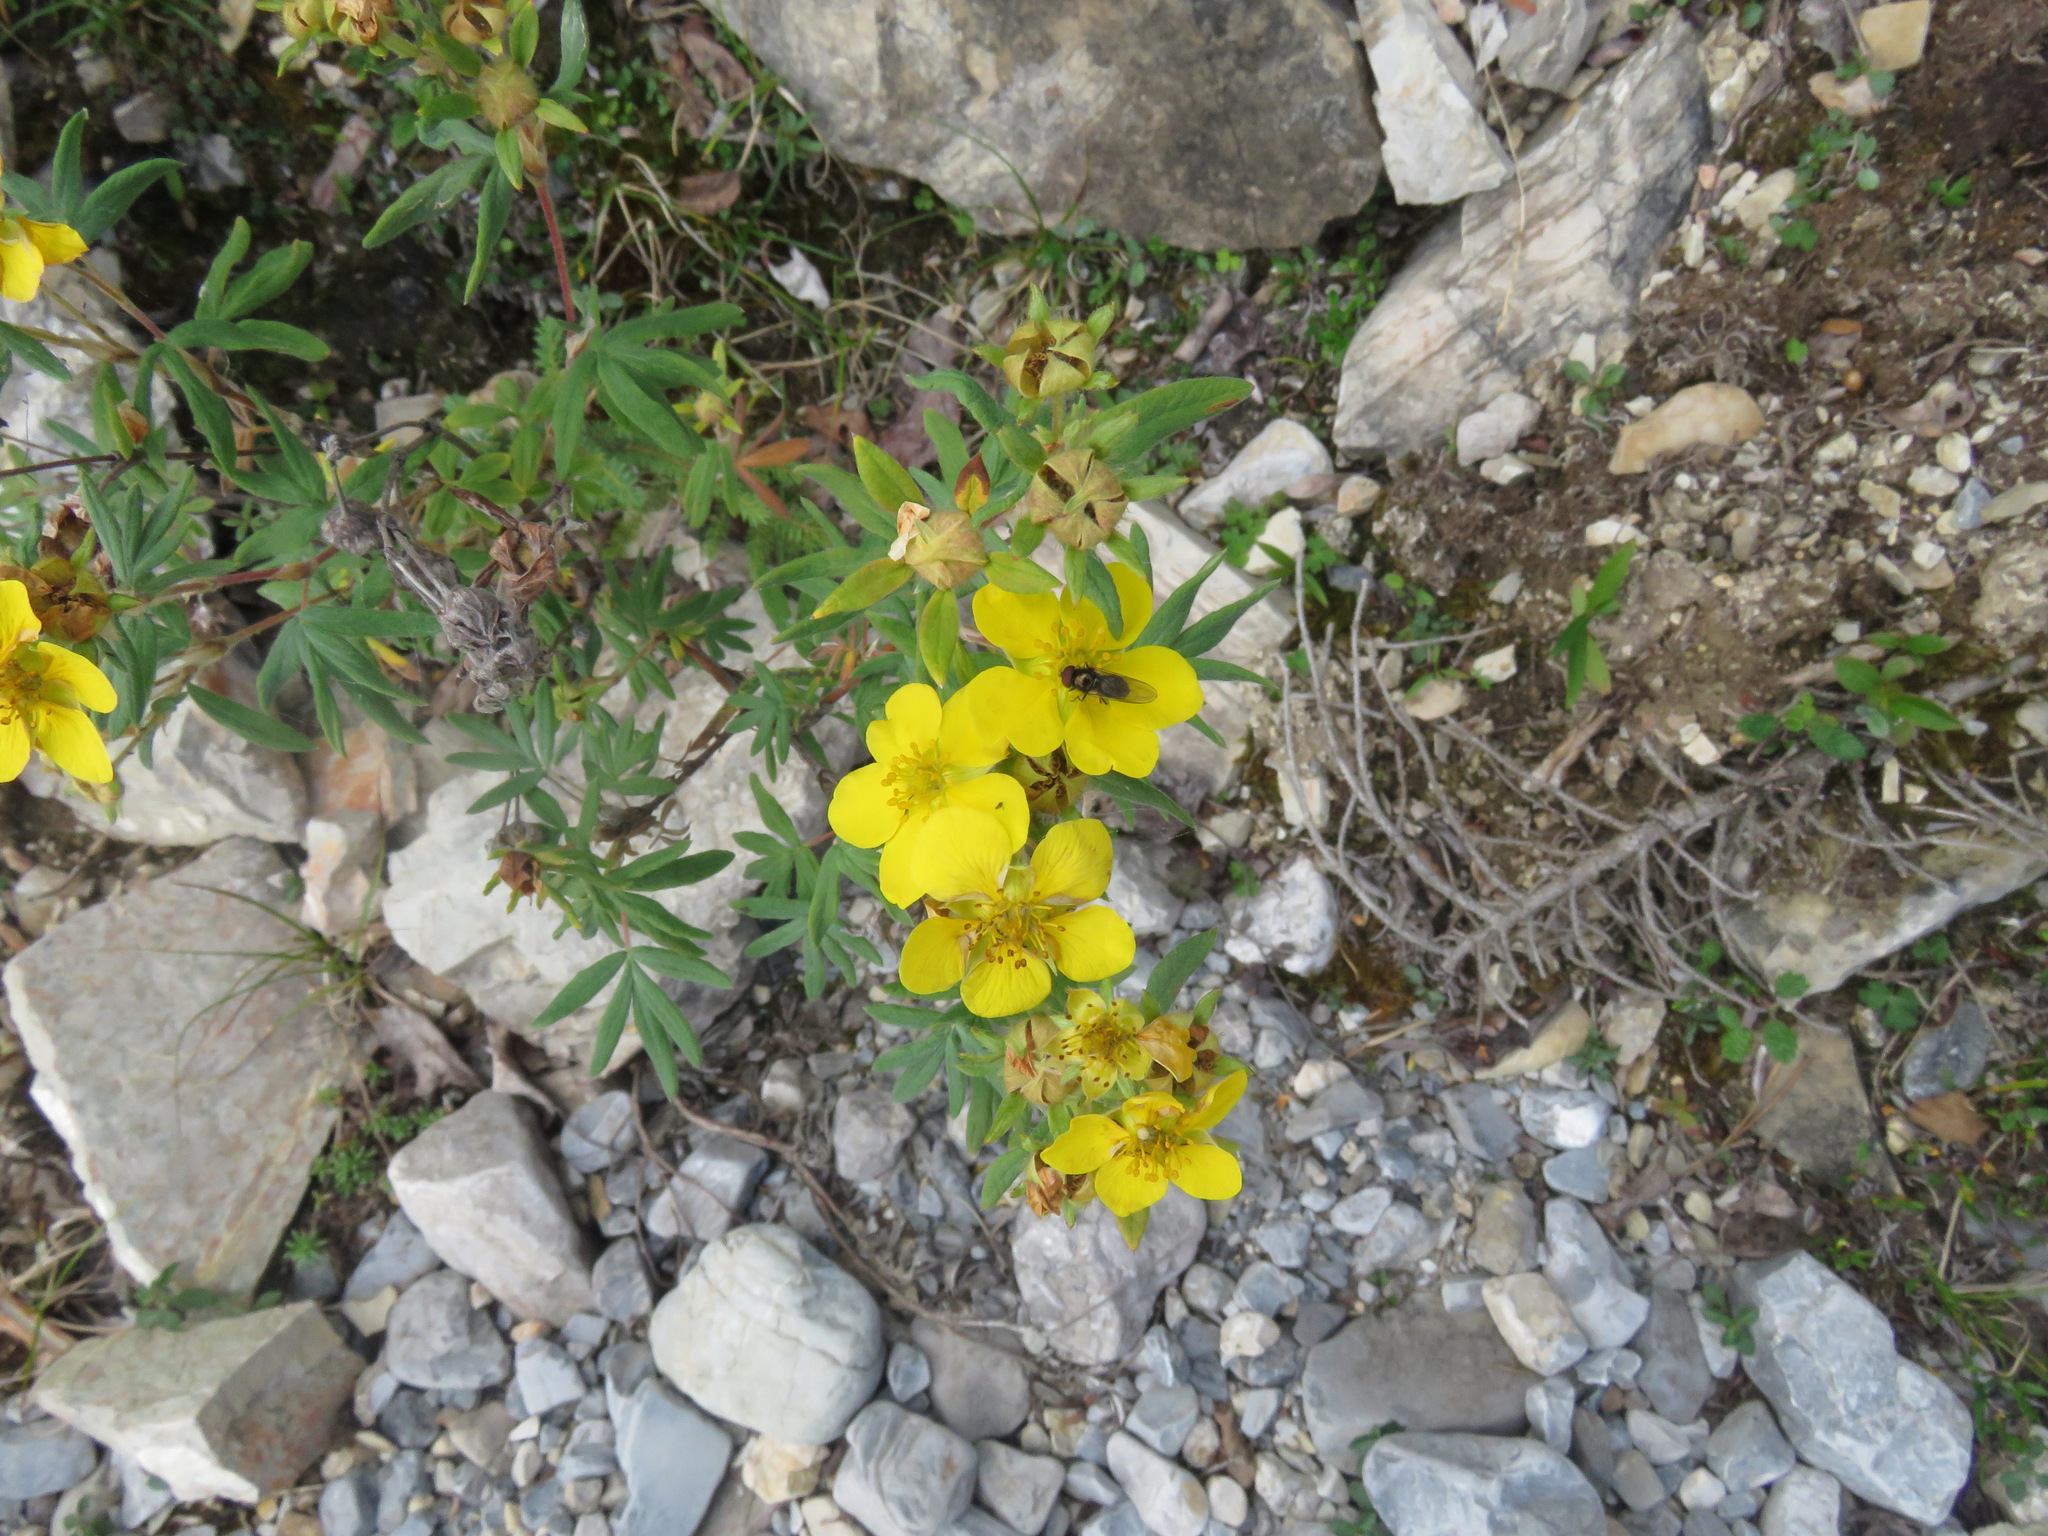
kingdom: Plantae
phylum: Tracheophyta
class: Magnoliopsida
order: Rosales
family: Rosaceae
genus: Dasiphora
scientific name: Dasiphora fruticosa
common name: Shrubby cinquefoil
